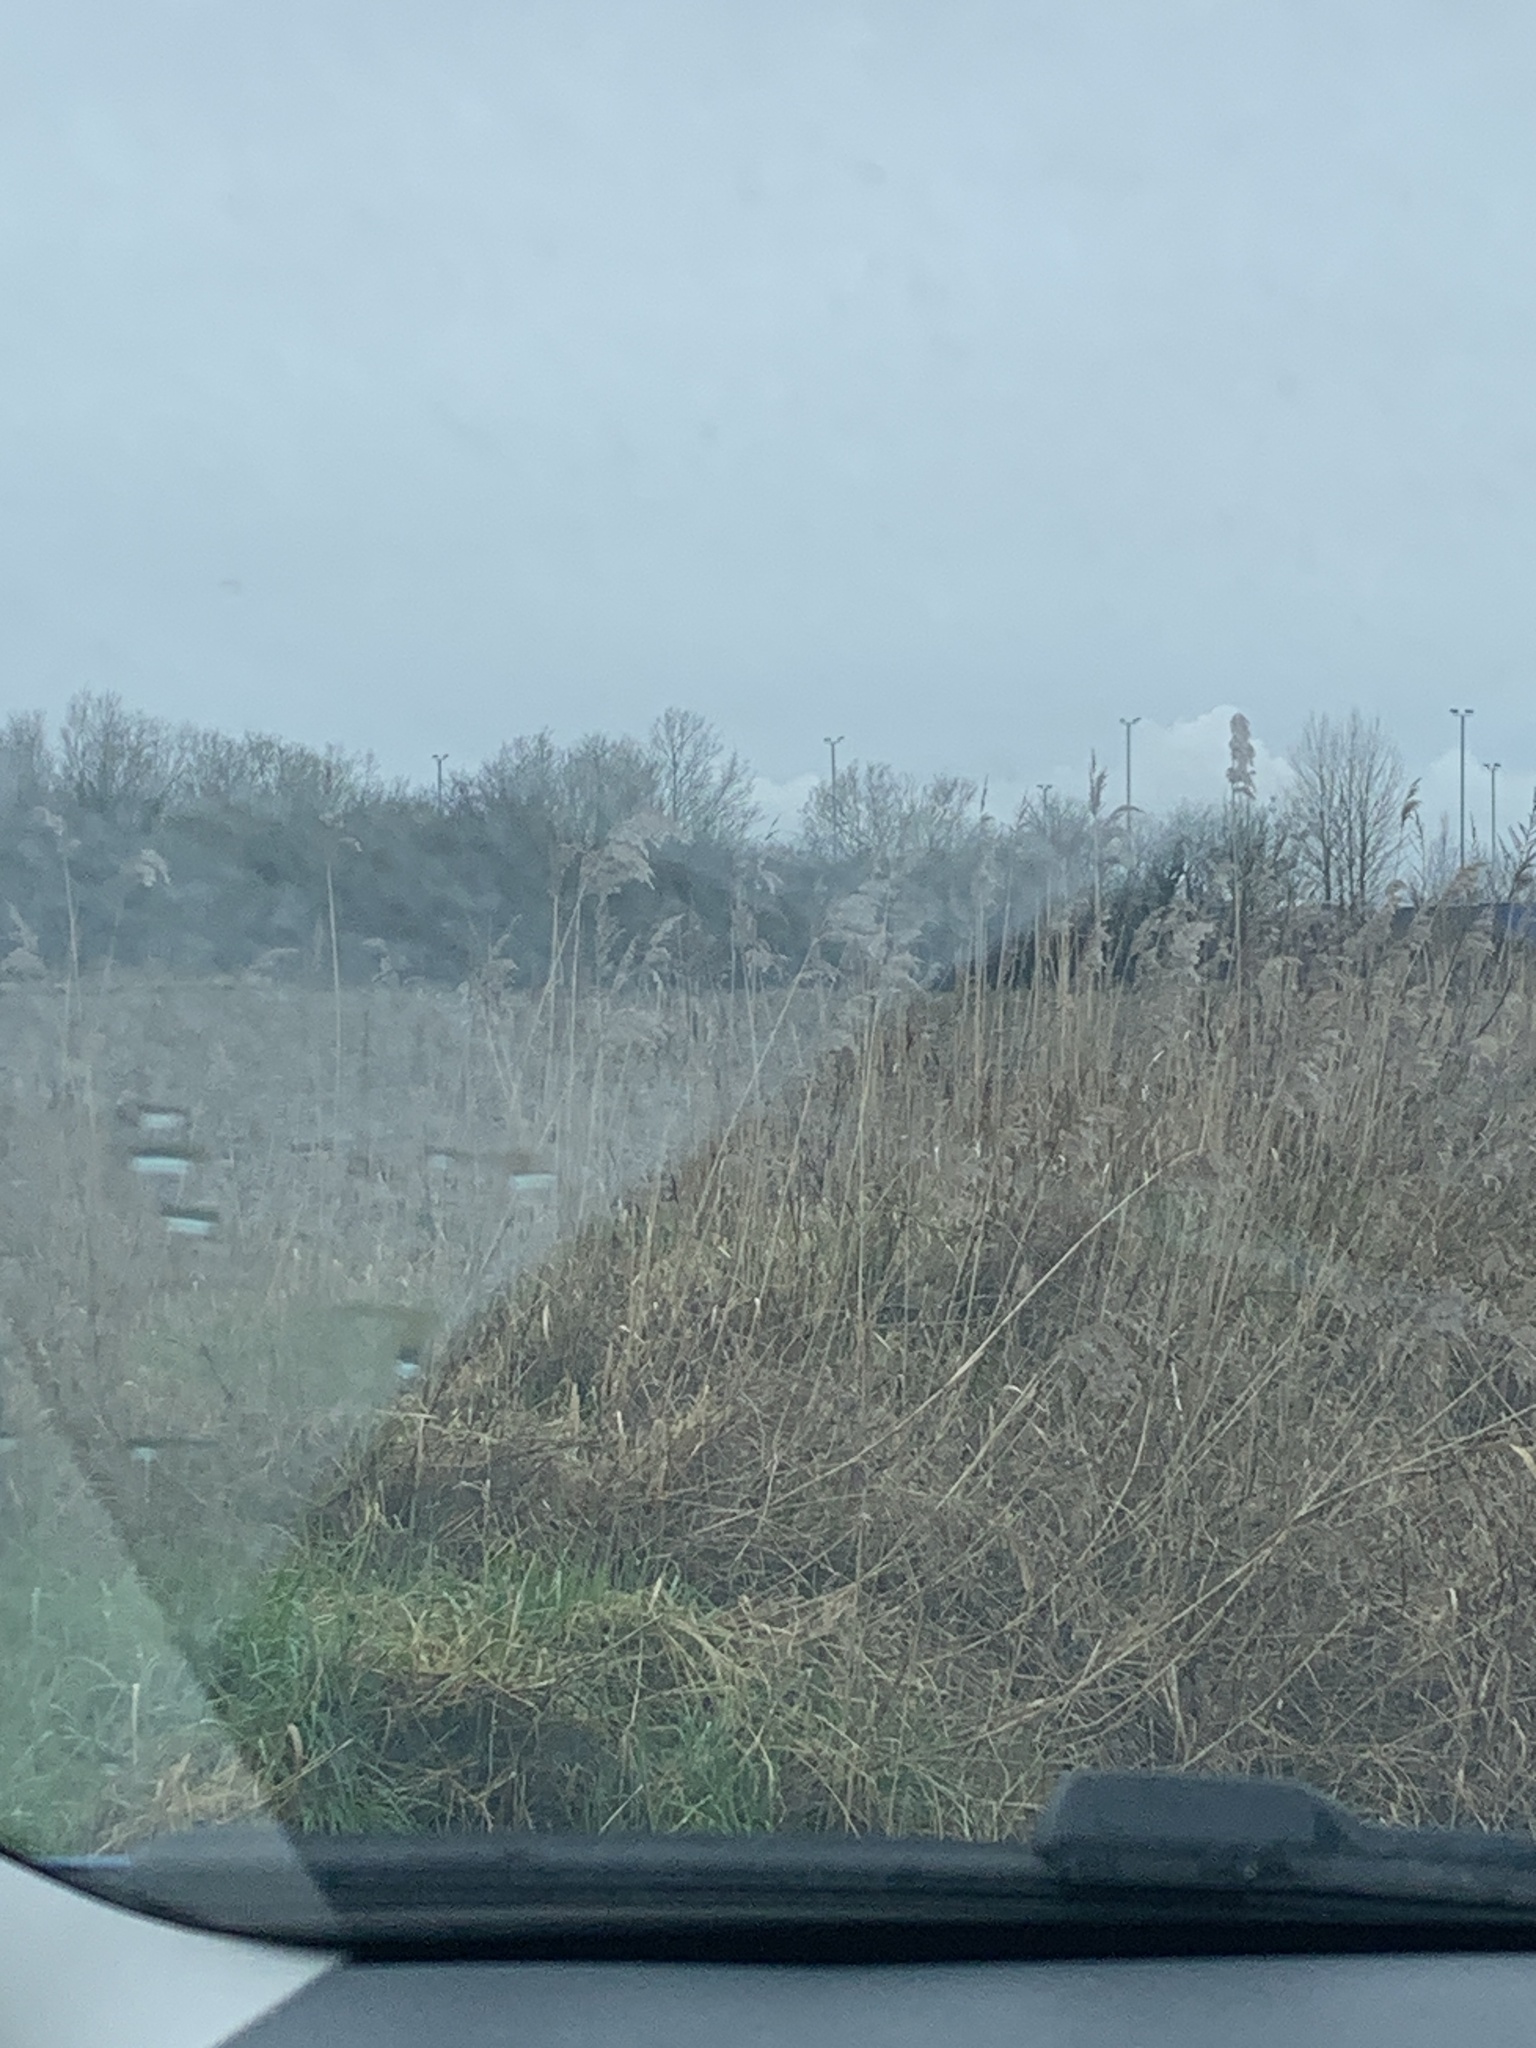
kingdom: Plantae
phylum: Tracheophyta
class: Liliopsida
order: Poales
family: Poaceae
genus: Phragmites
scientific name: Phragmites australis
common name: Common reed
